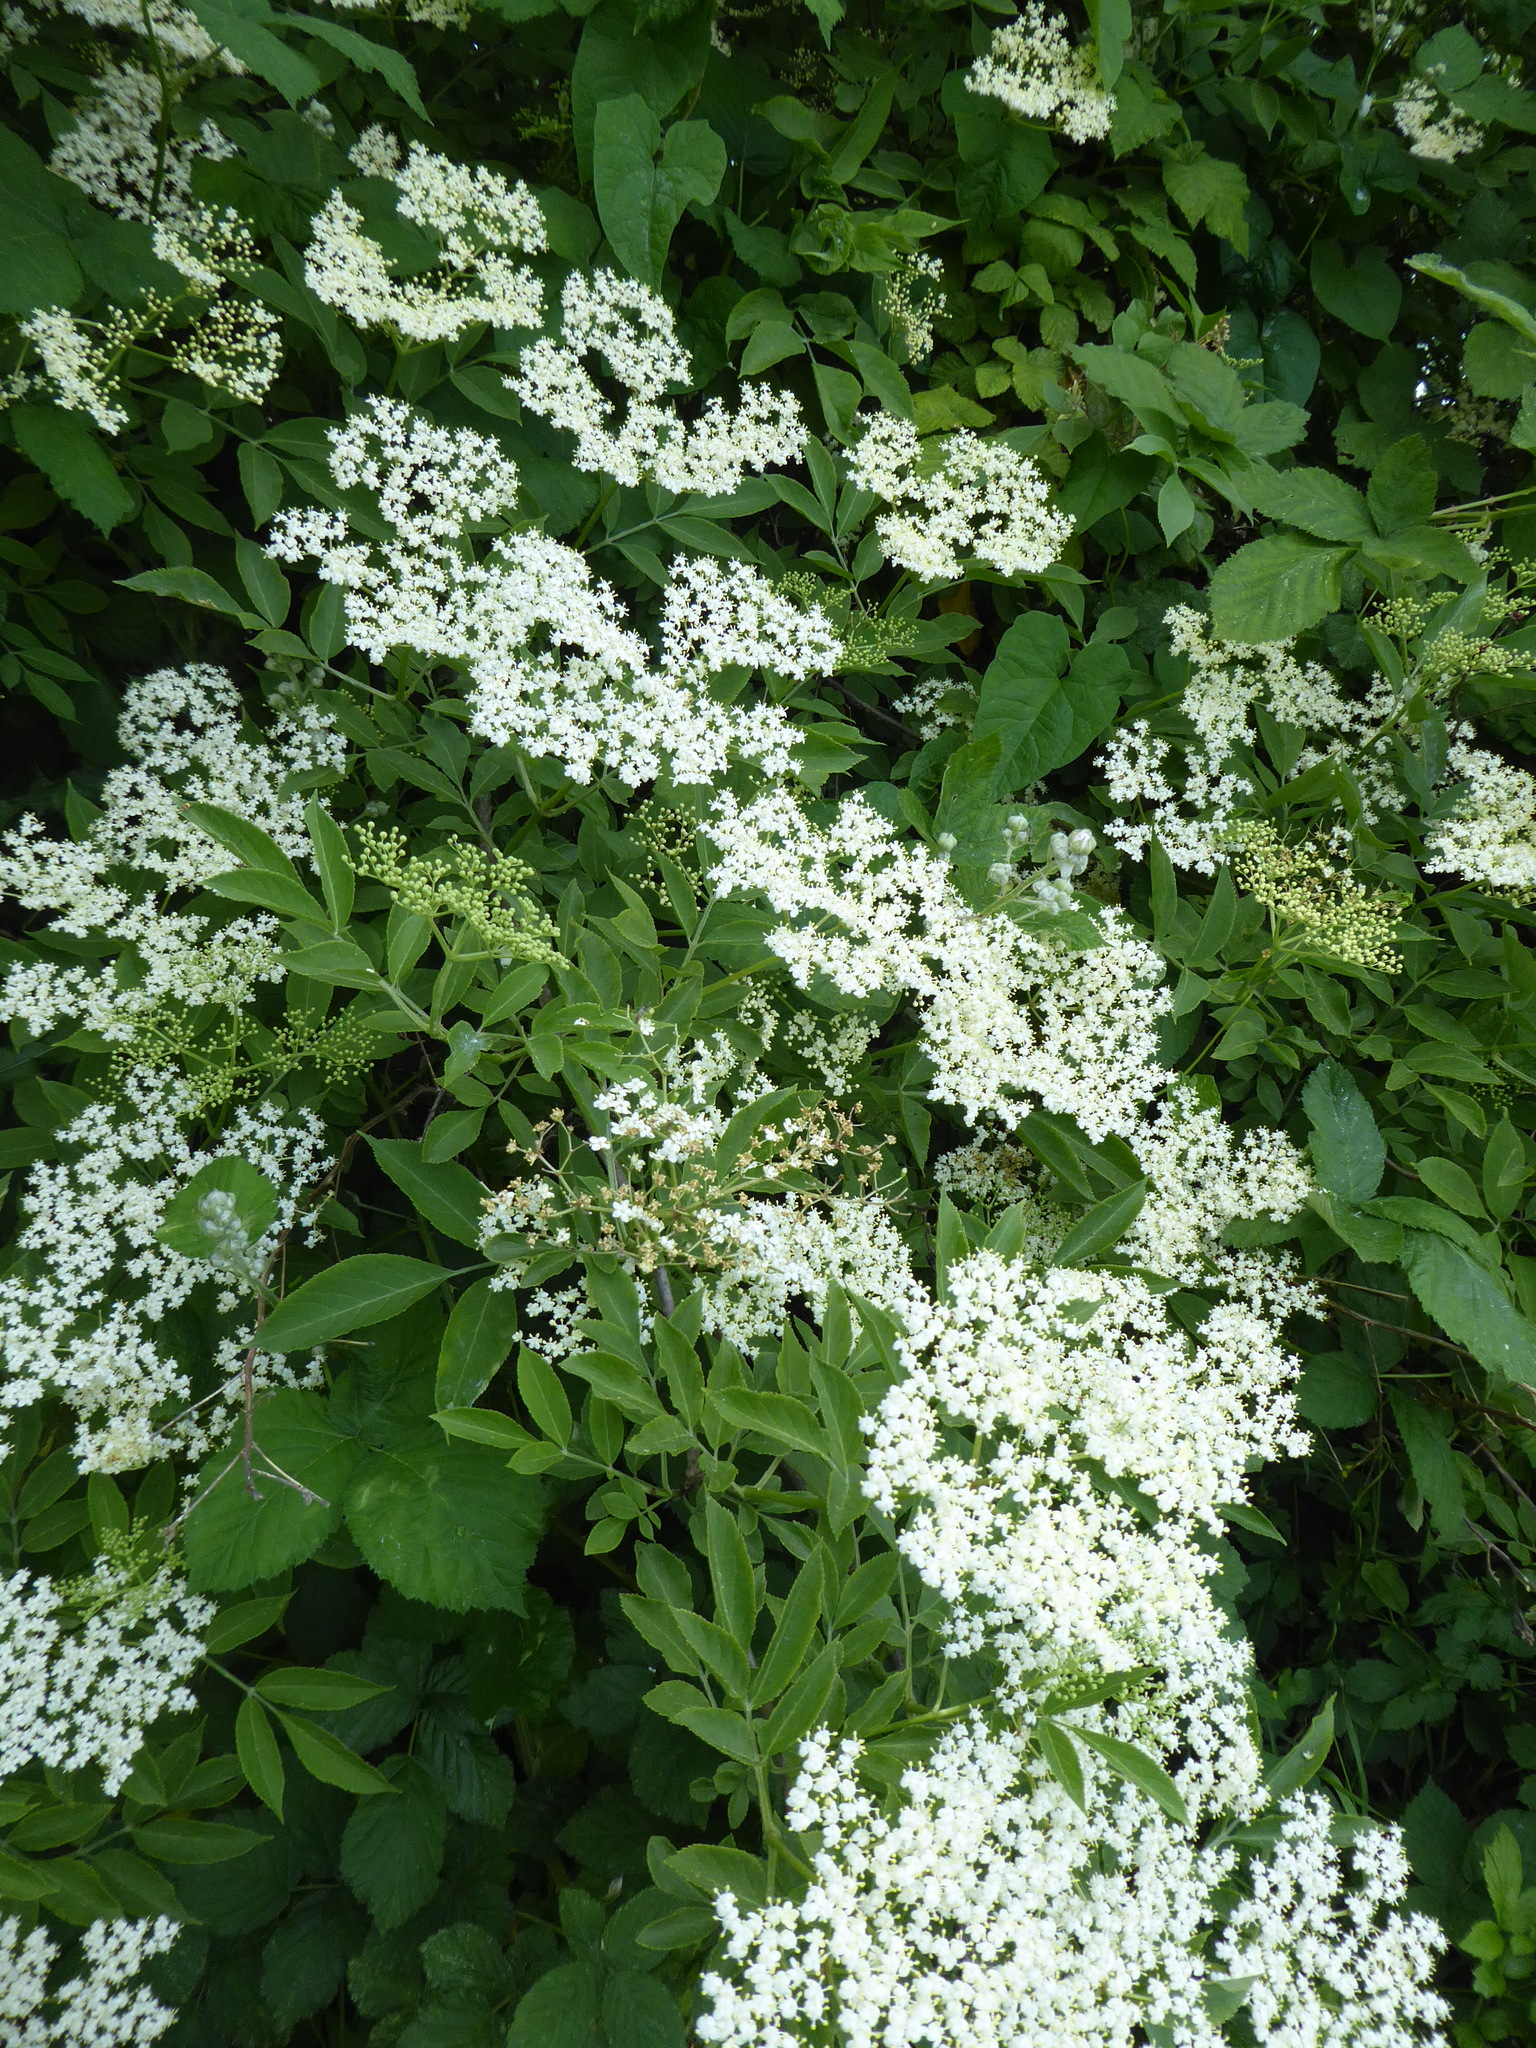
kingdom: Plantae
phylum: Tracheophyta
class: Magnoliopsida
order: Dipsacales
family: Viburnaceae
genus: Sambucus
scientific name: Sambucus nigra
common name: Elder
